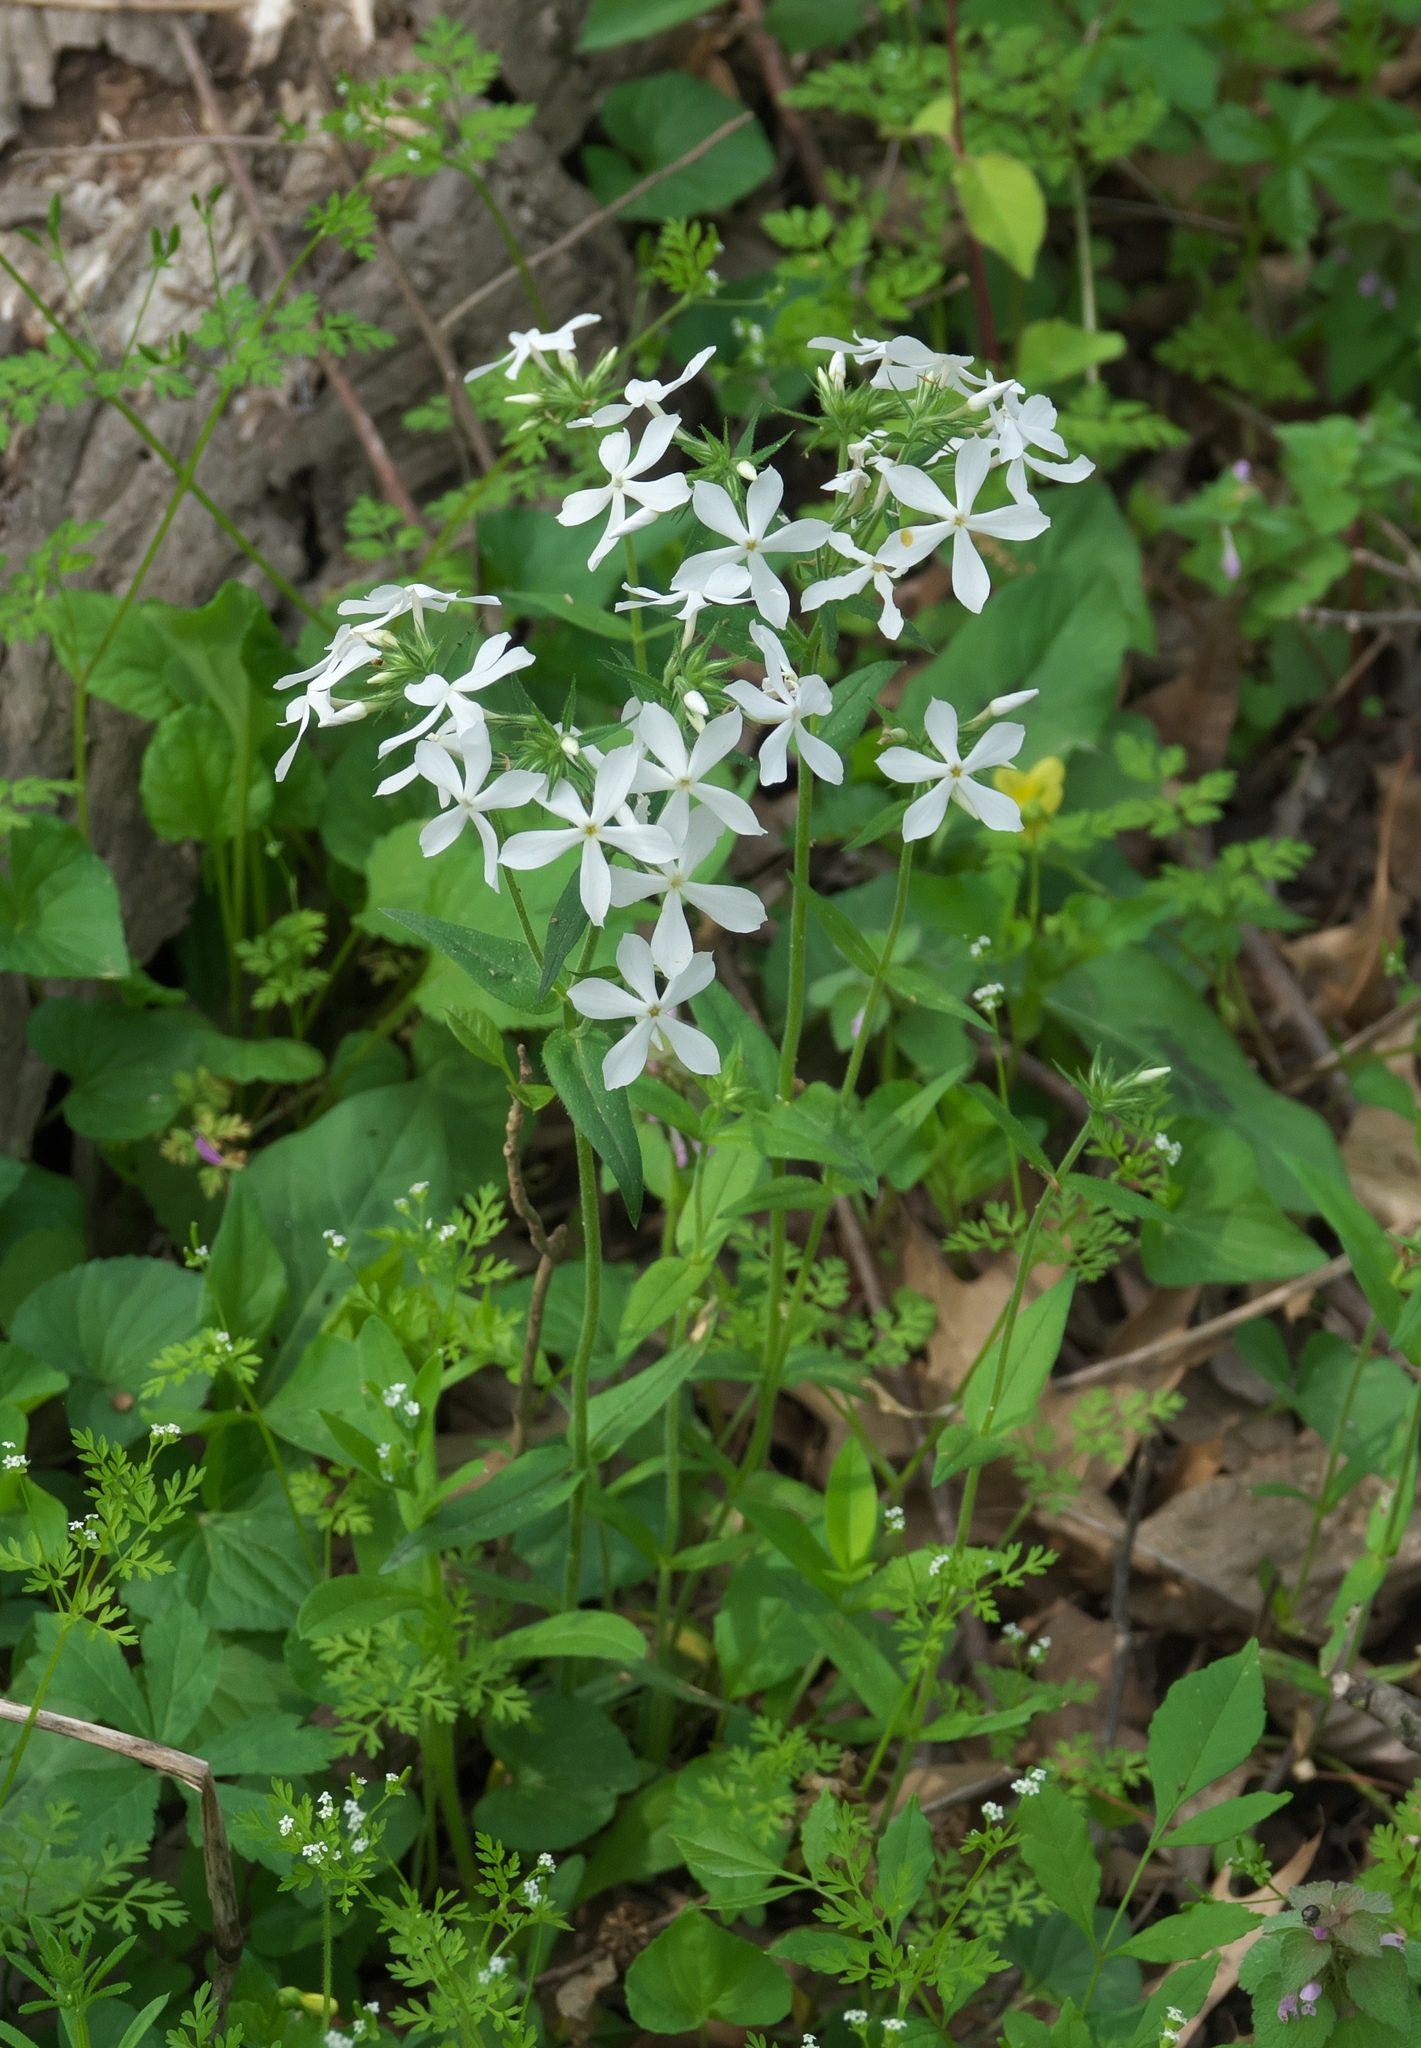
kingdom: Plantae
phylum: Tracheophyta
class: Magnoliopsida
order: Ericales
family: Polemoniaceae
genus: Phlox
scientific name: Phlox divaricata
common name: Blue phlox
